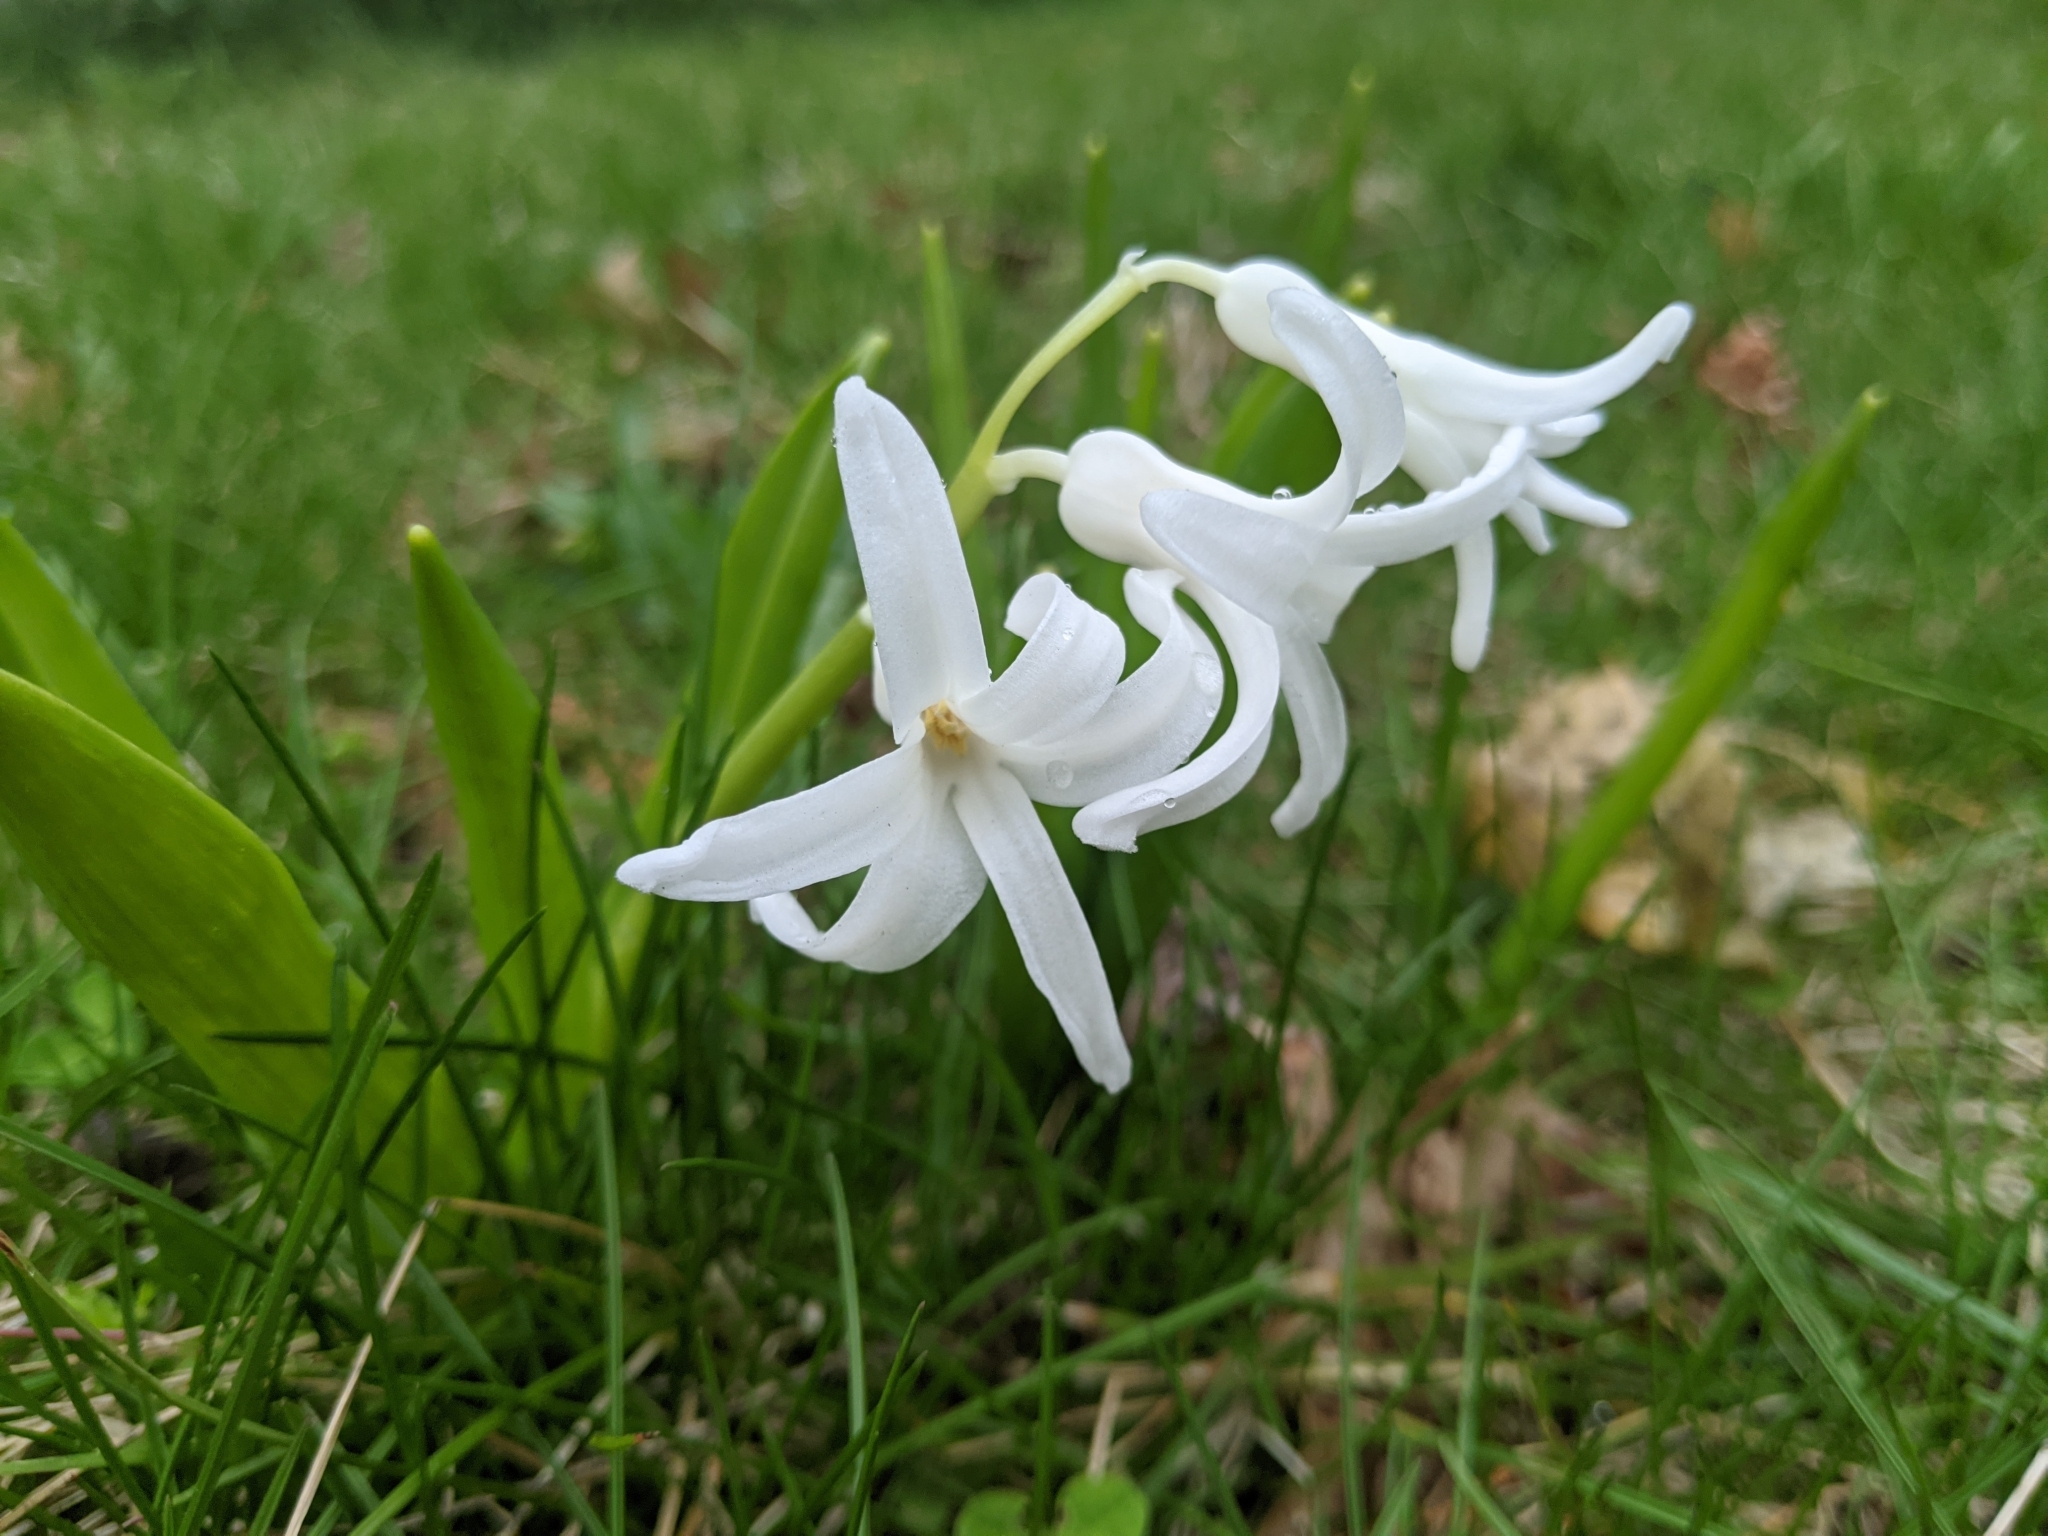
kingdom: Plantae
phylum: Tracheophyta
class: Liliopsida
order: Asparagales
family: Asparagaceae
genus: Hyacinthus
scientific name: Hyacinthus orientalis
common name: Hyacinth
